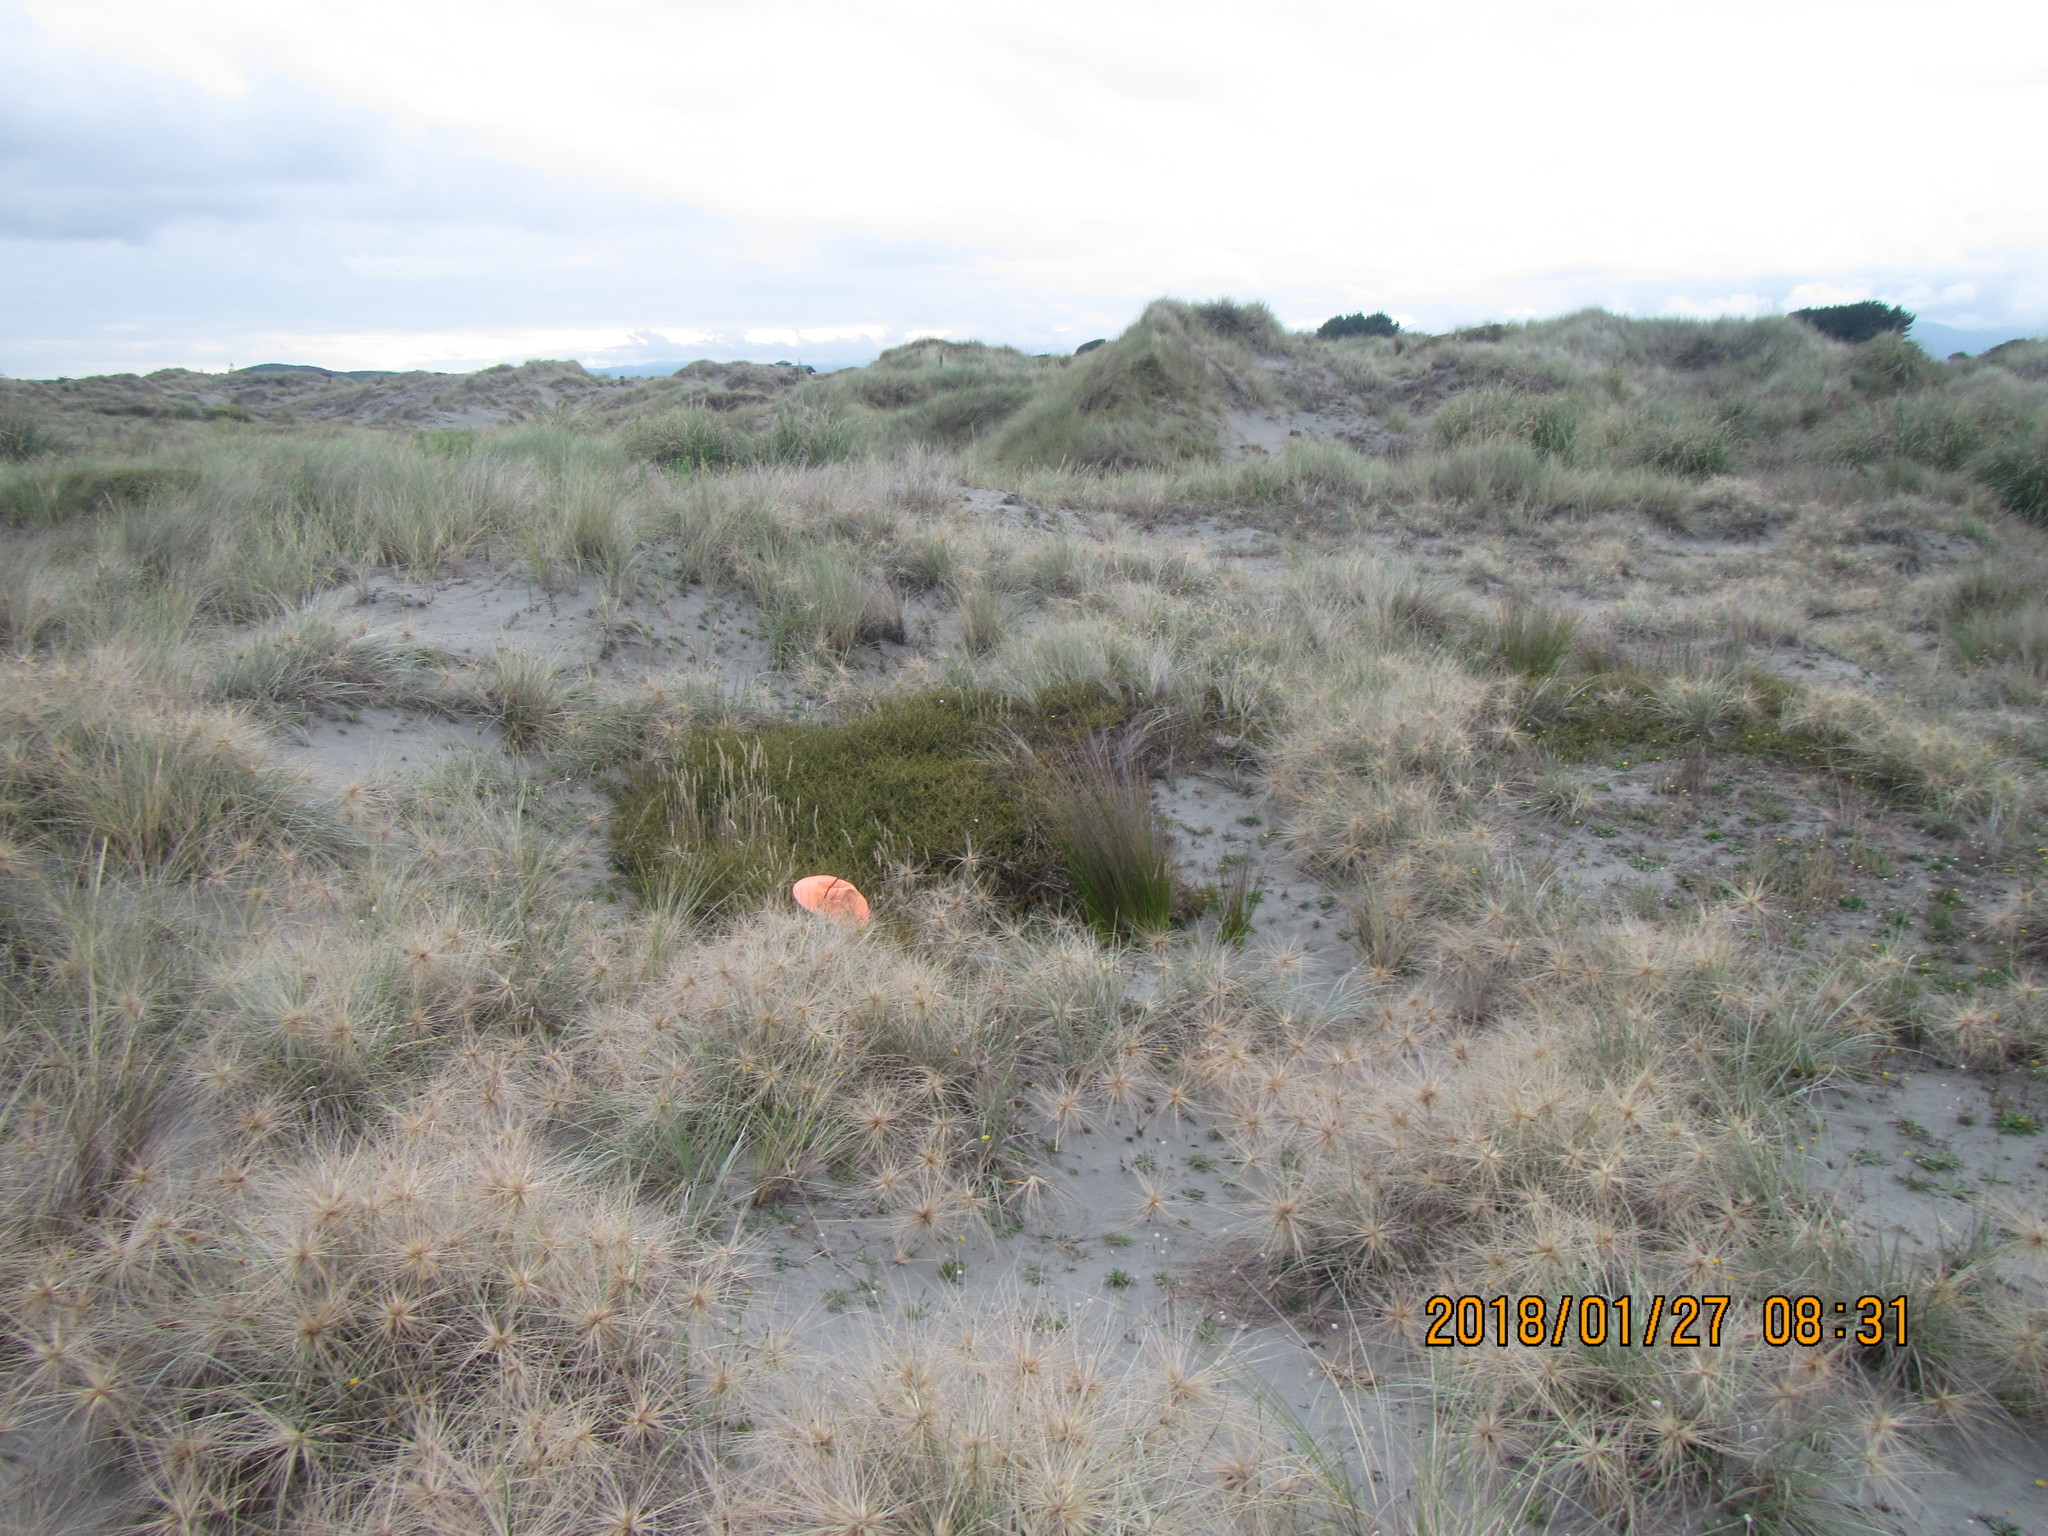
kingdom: Plantae
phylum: Tracheophyta
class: Magnoliopsida
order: Gentianales
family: Rubiaceae
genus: Coprosma
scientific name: Coprosma acerosa
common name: Sand coprosma
